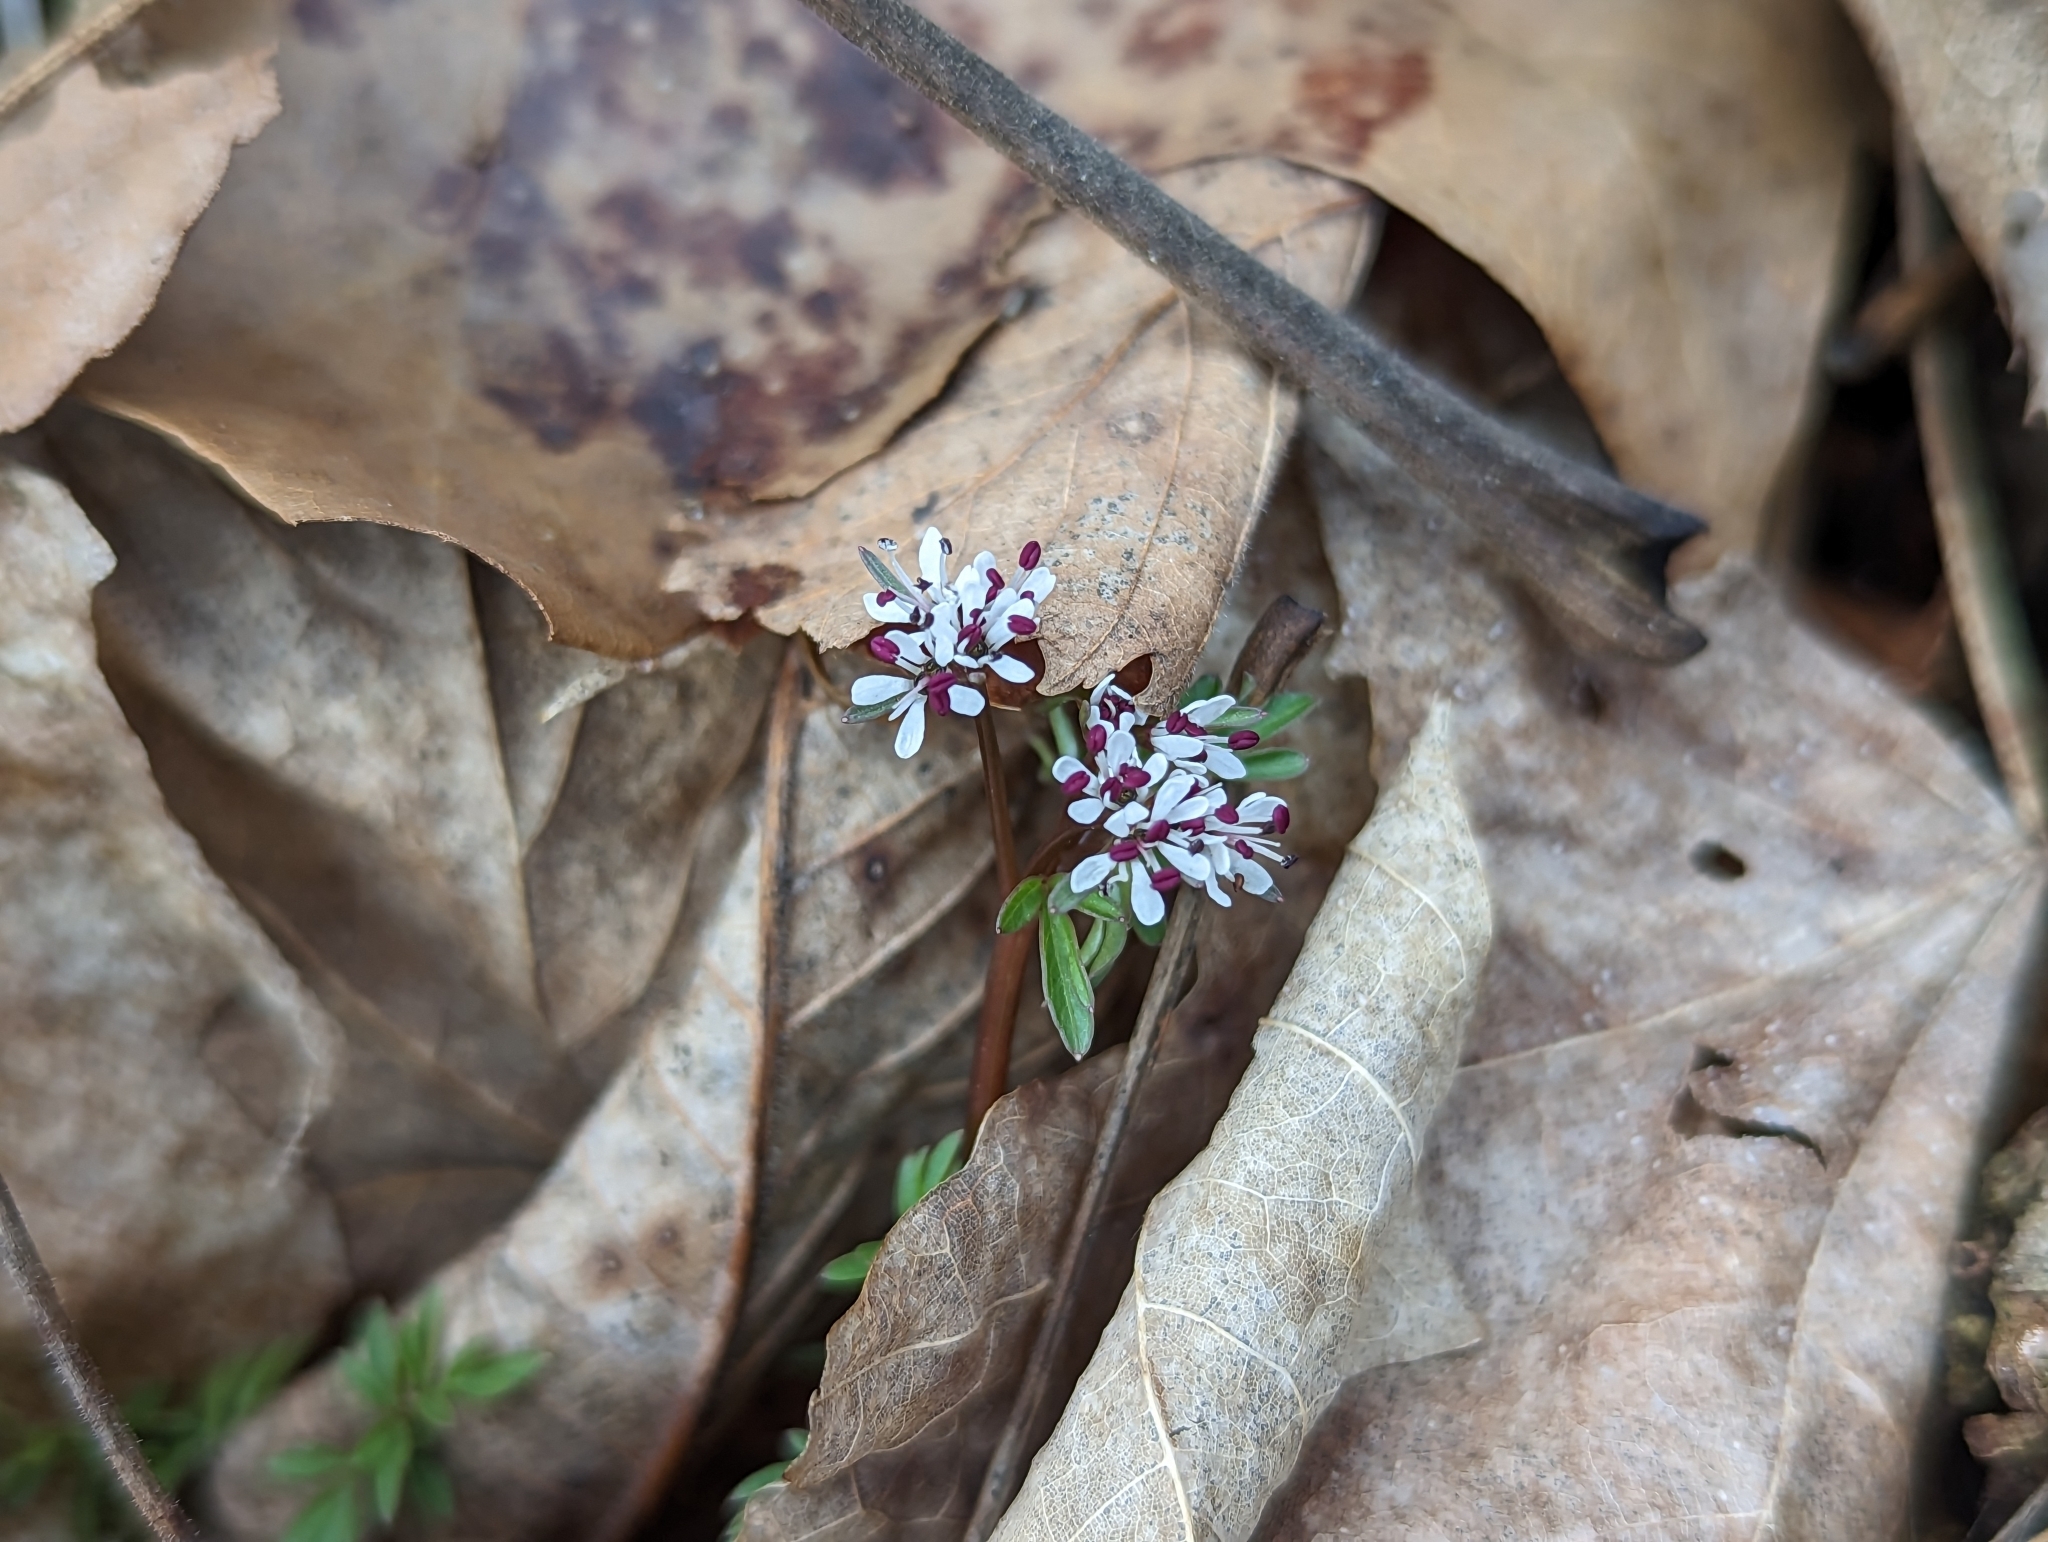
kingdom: Plantae
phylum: Tracheophyta
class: Magnoliopsida
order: Apiales
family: Apiaceae
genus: Erigenia
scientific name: Erigenia bulbosa
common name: Pepper-and-salt
